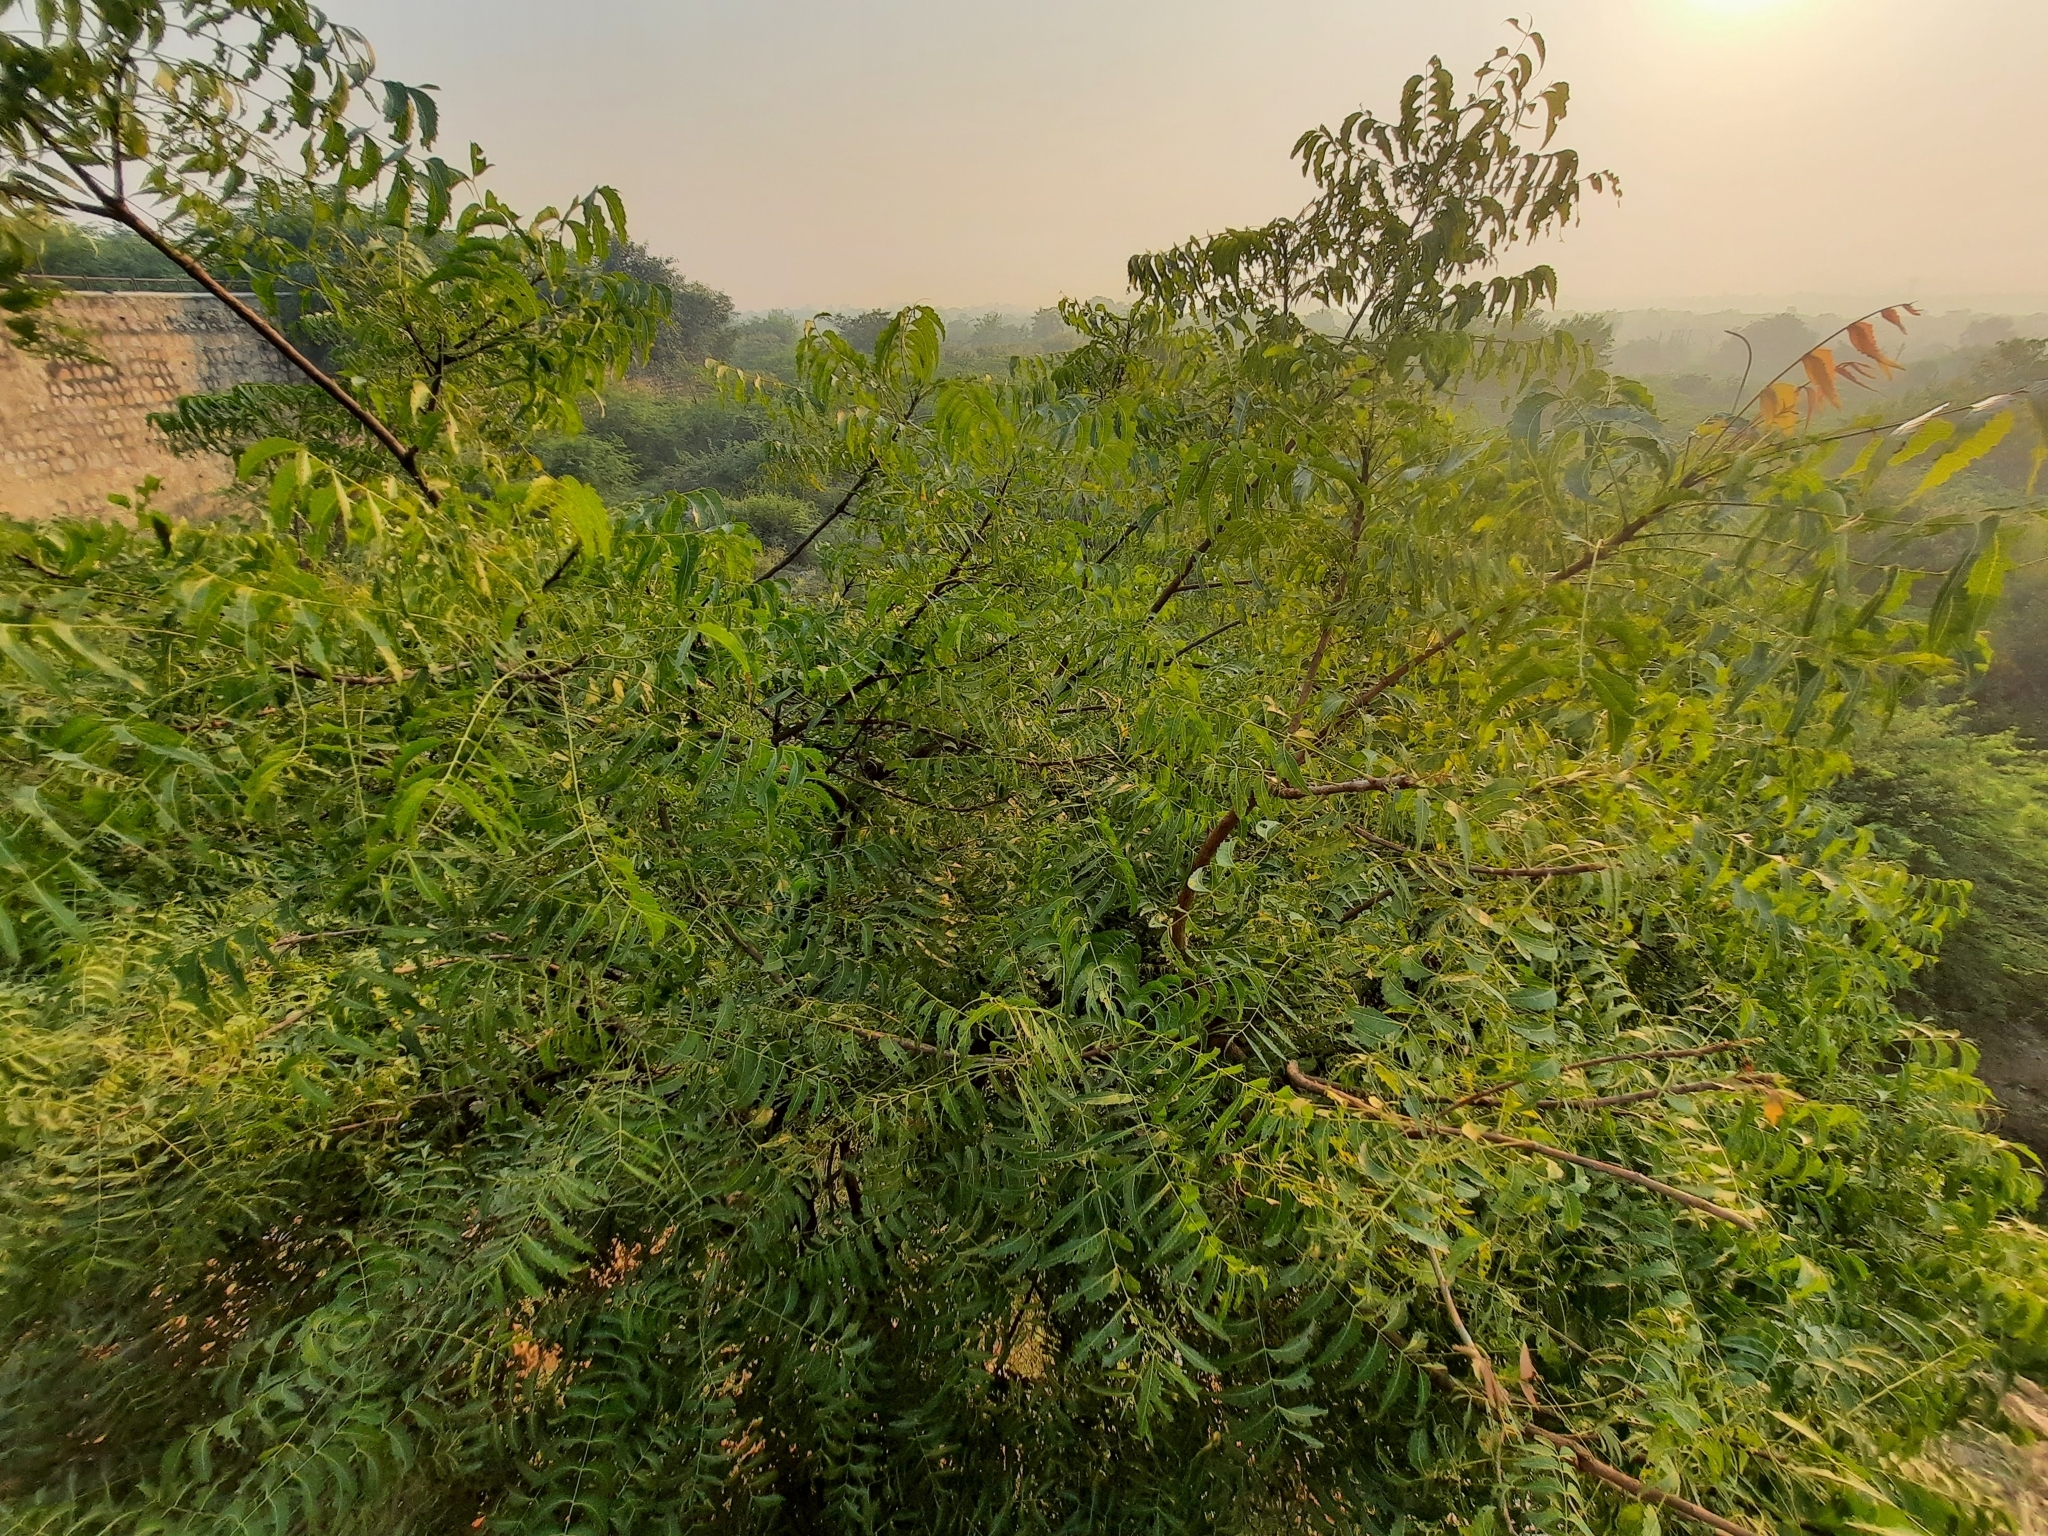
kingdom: Plantae
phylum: Tracheophyta
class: Magnoliopsida
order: Sapindales
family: Meliaceae
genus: Azadirachta
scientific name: Azadirachta indica
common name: Neem
